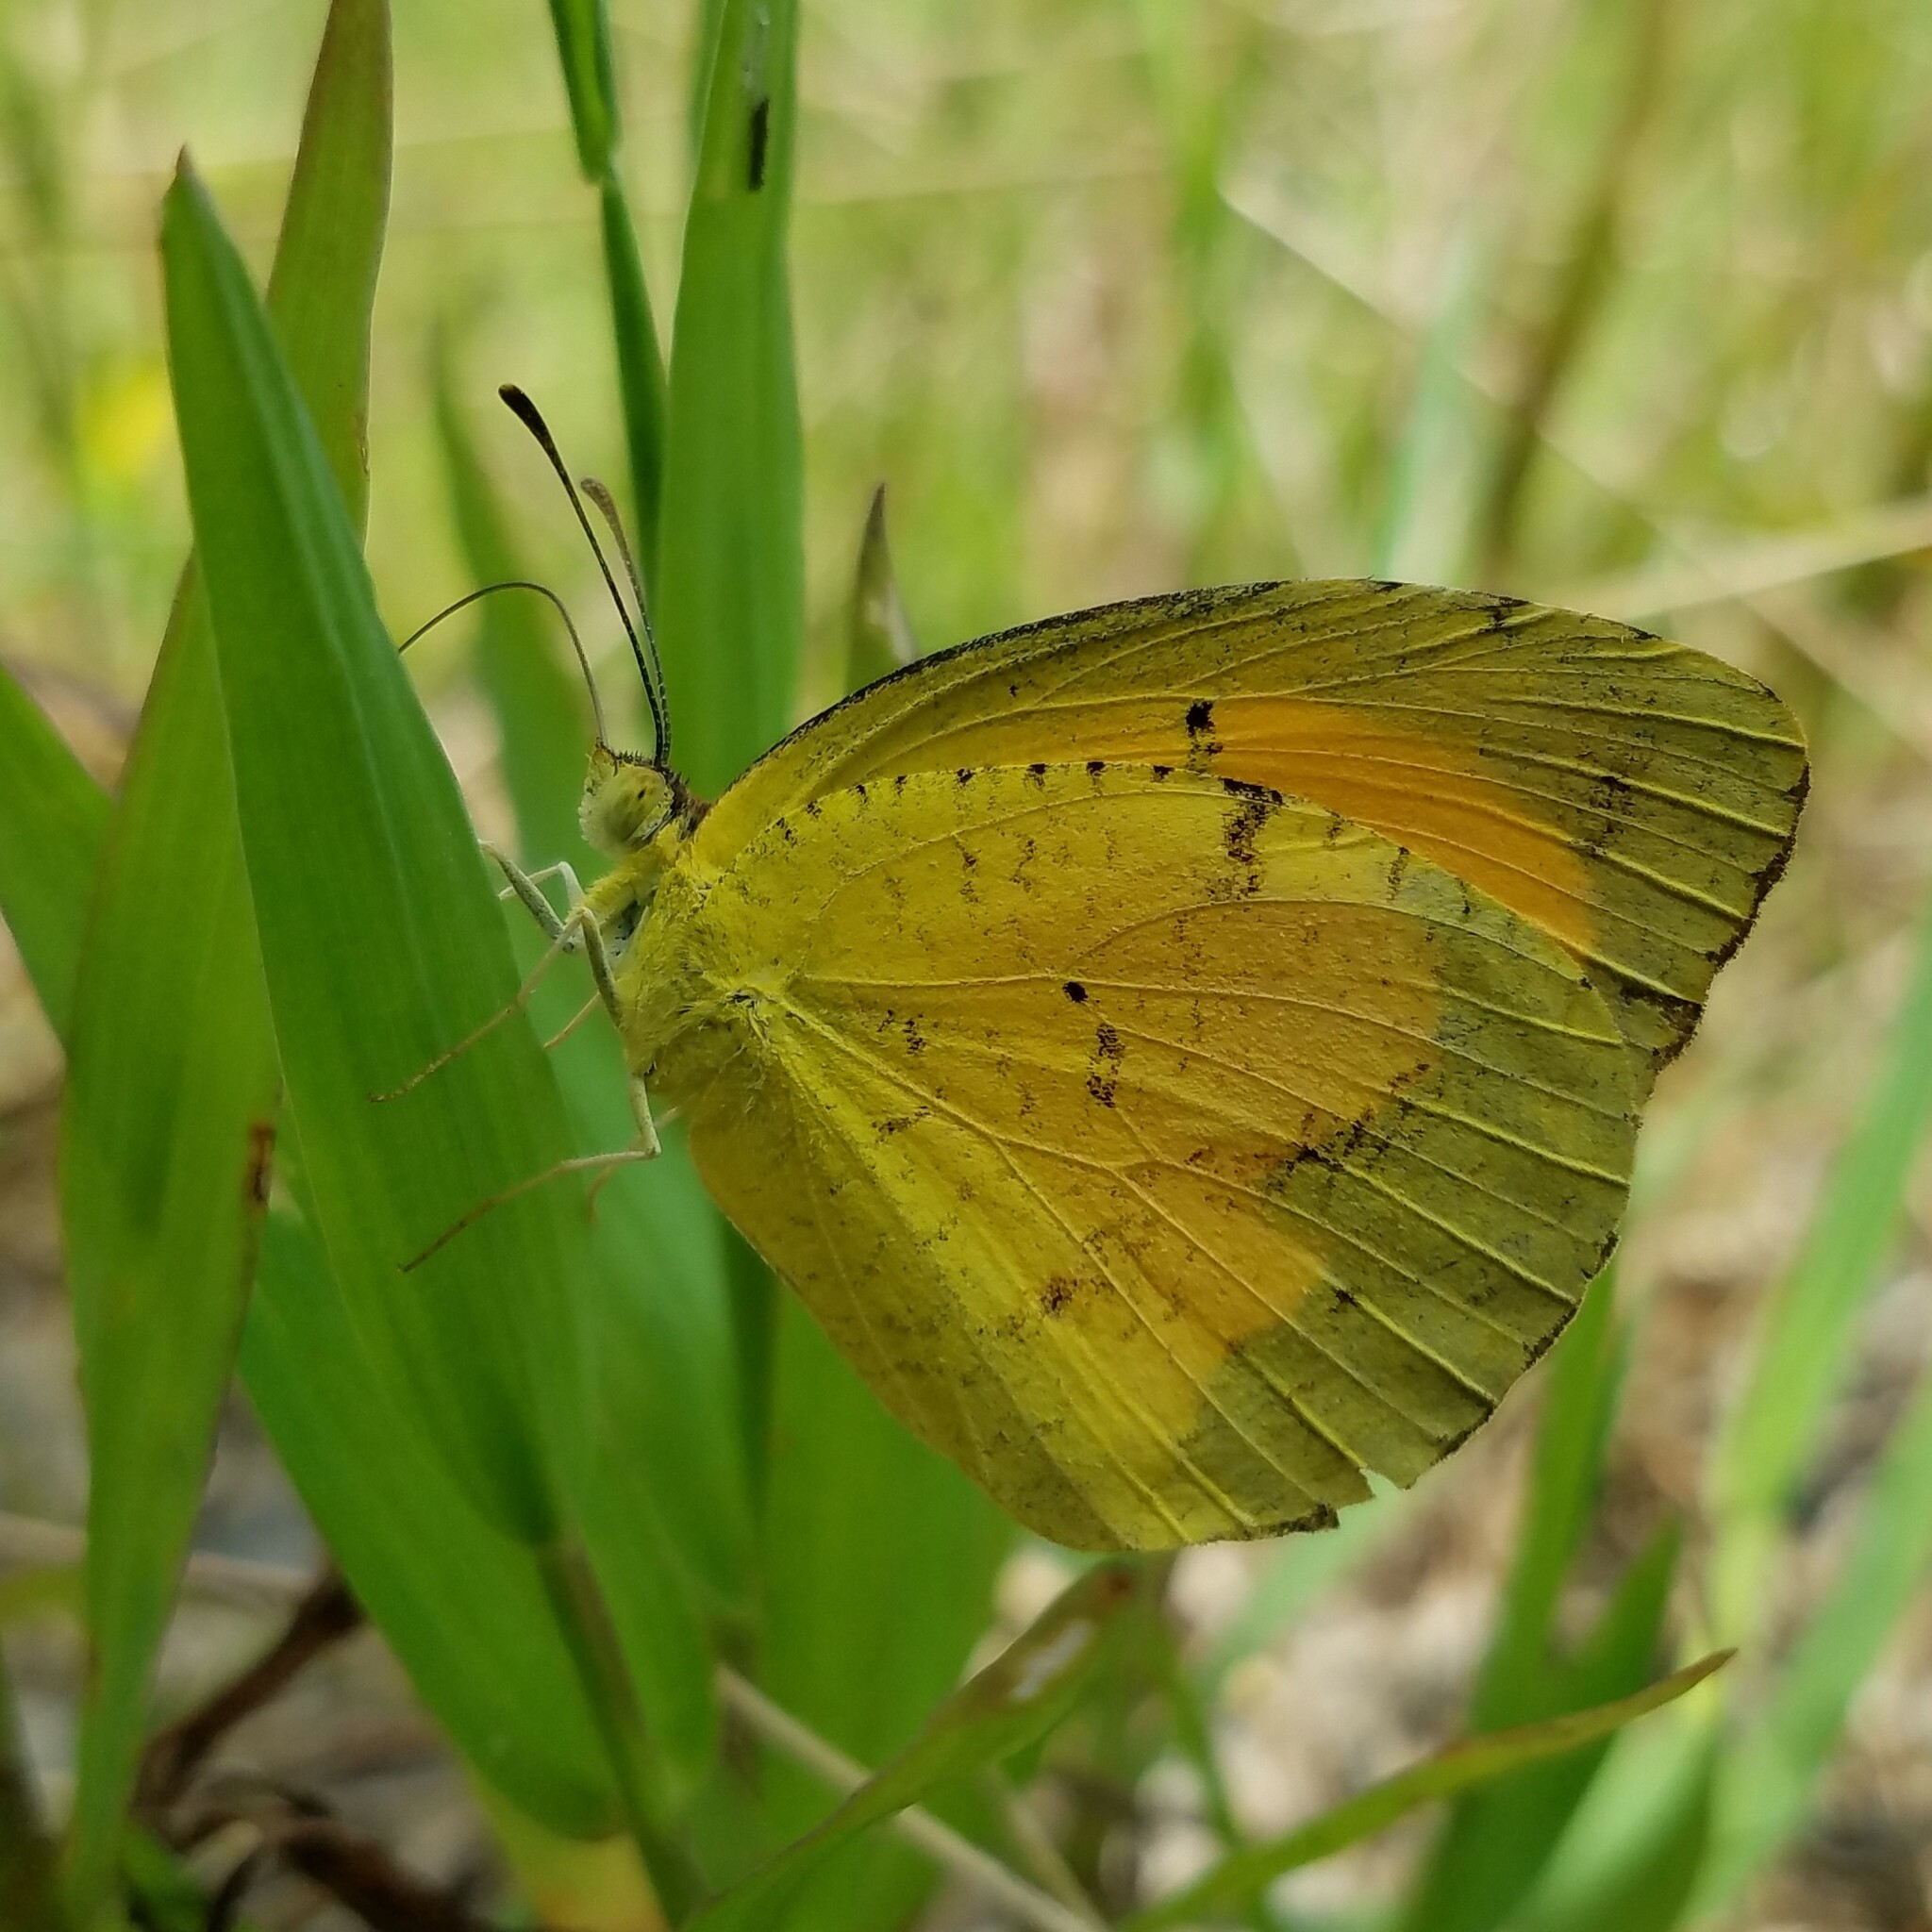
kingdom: Animalia
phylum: Arthropoda
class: Insecta
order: Lepidoptera
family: Pieridae
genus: Abaeis
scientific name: Abaeis nicippe
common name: Sleepy orange
